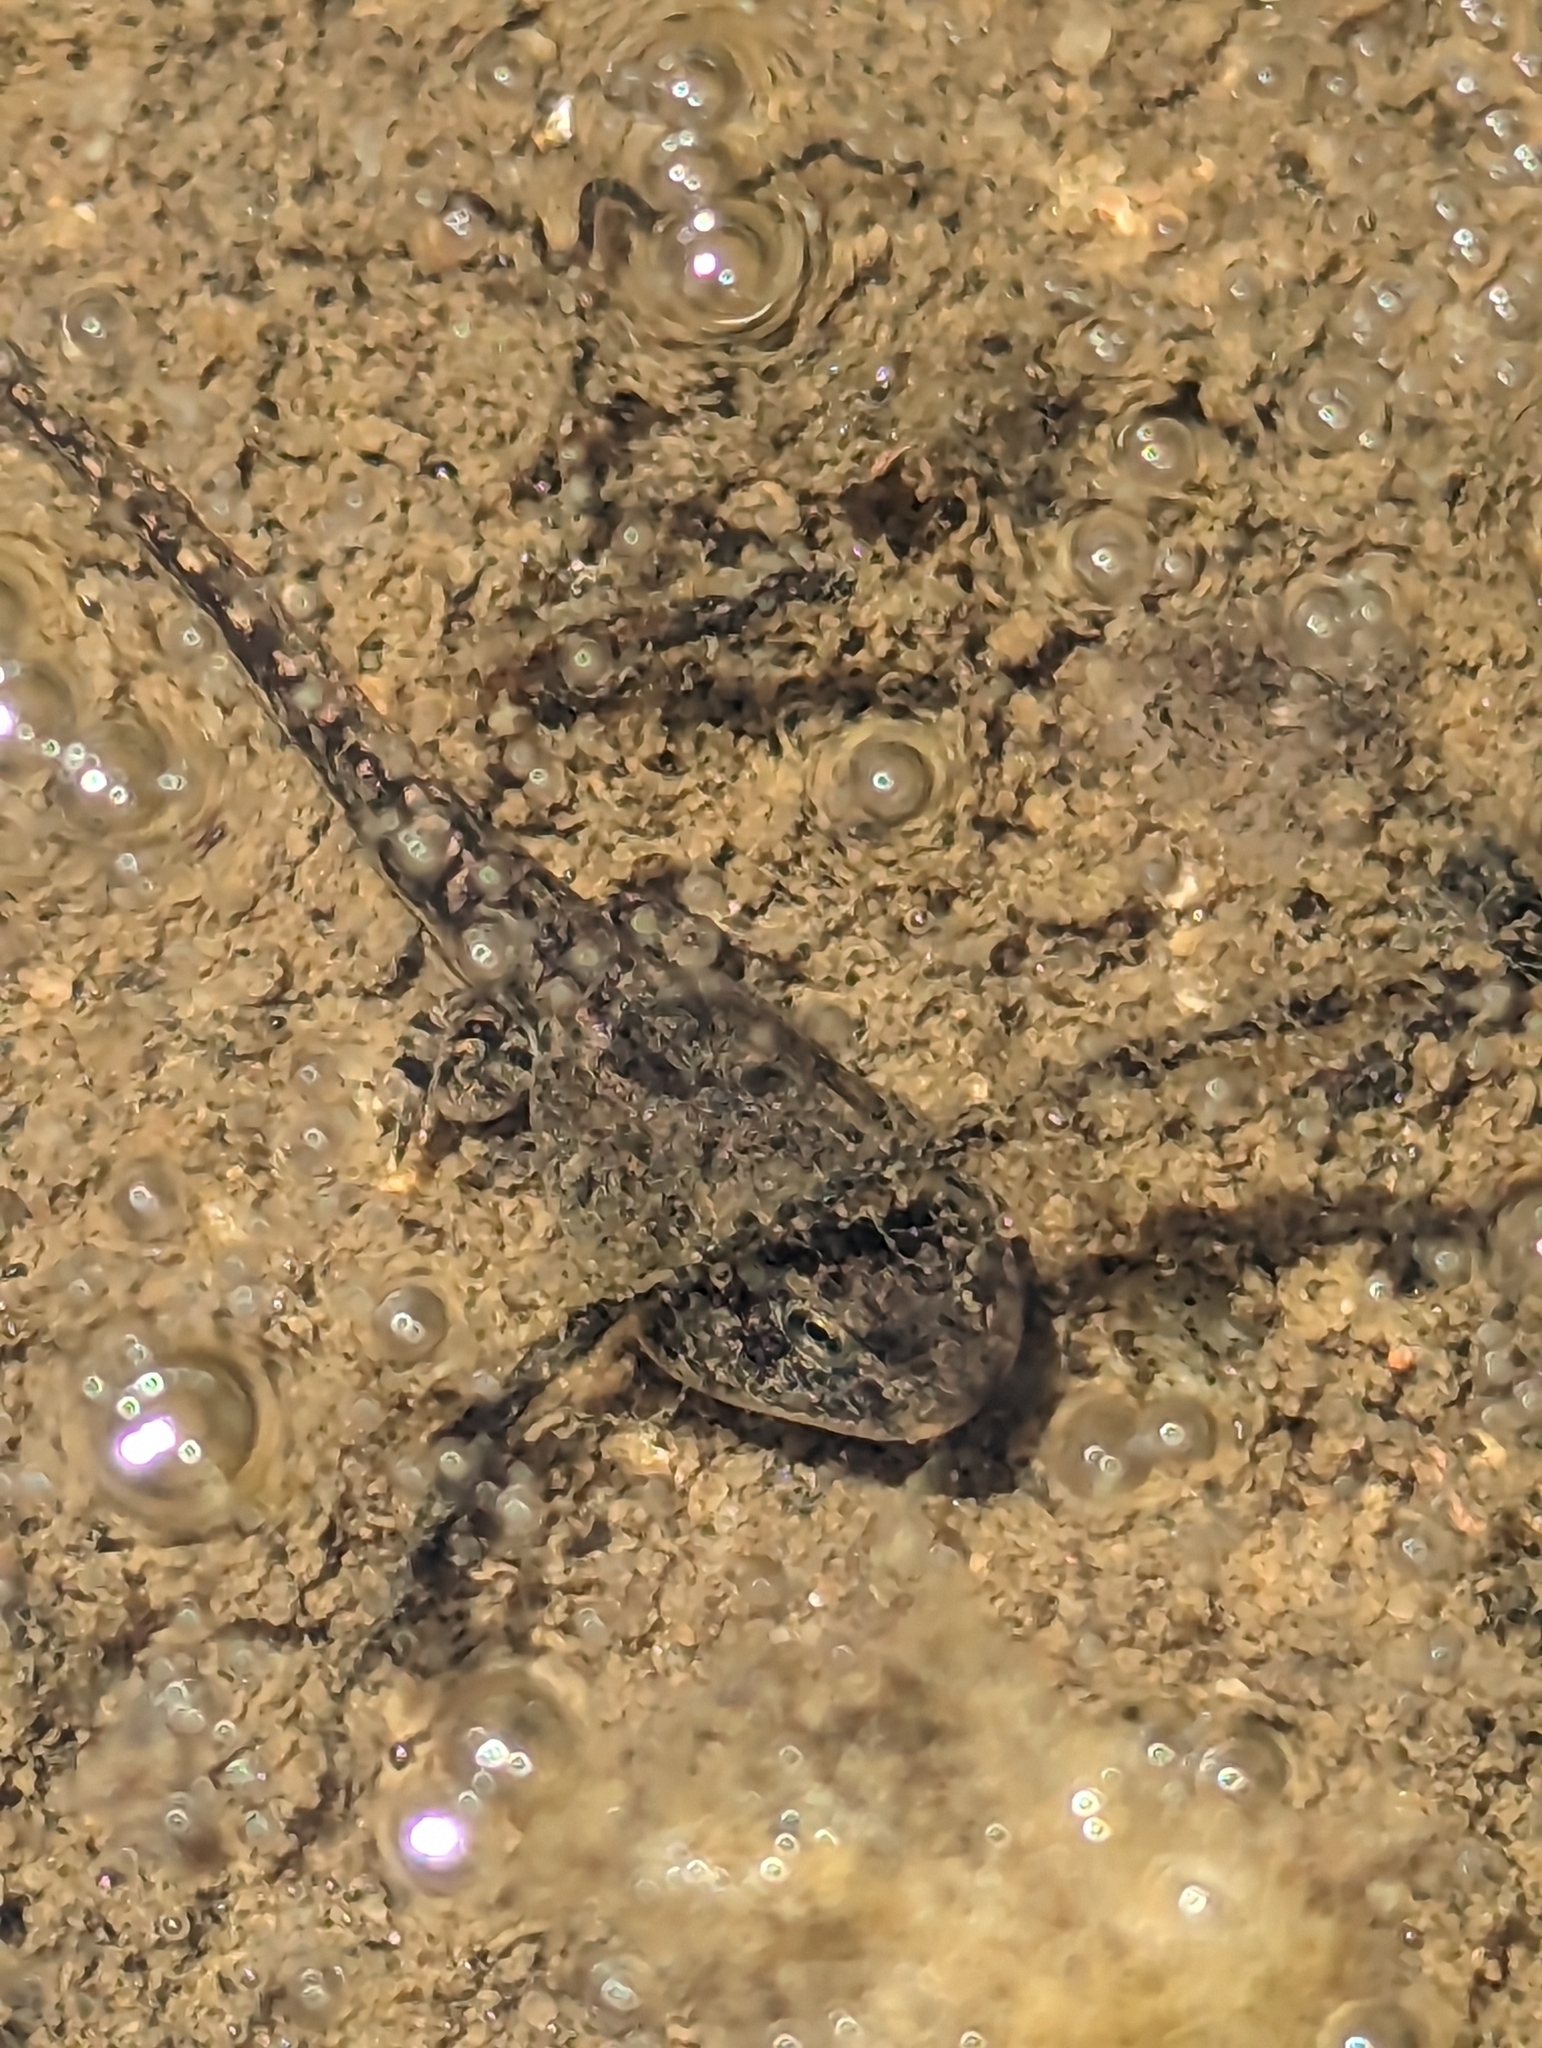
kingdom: Animalia
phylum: Chordata
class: Amphibia
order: Anura
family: Bufonidae
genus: Anaxyrus
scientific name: Anaxyrus woodhousii
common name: Woodhouse's toad
